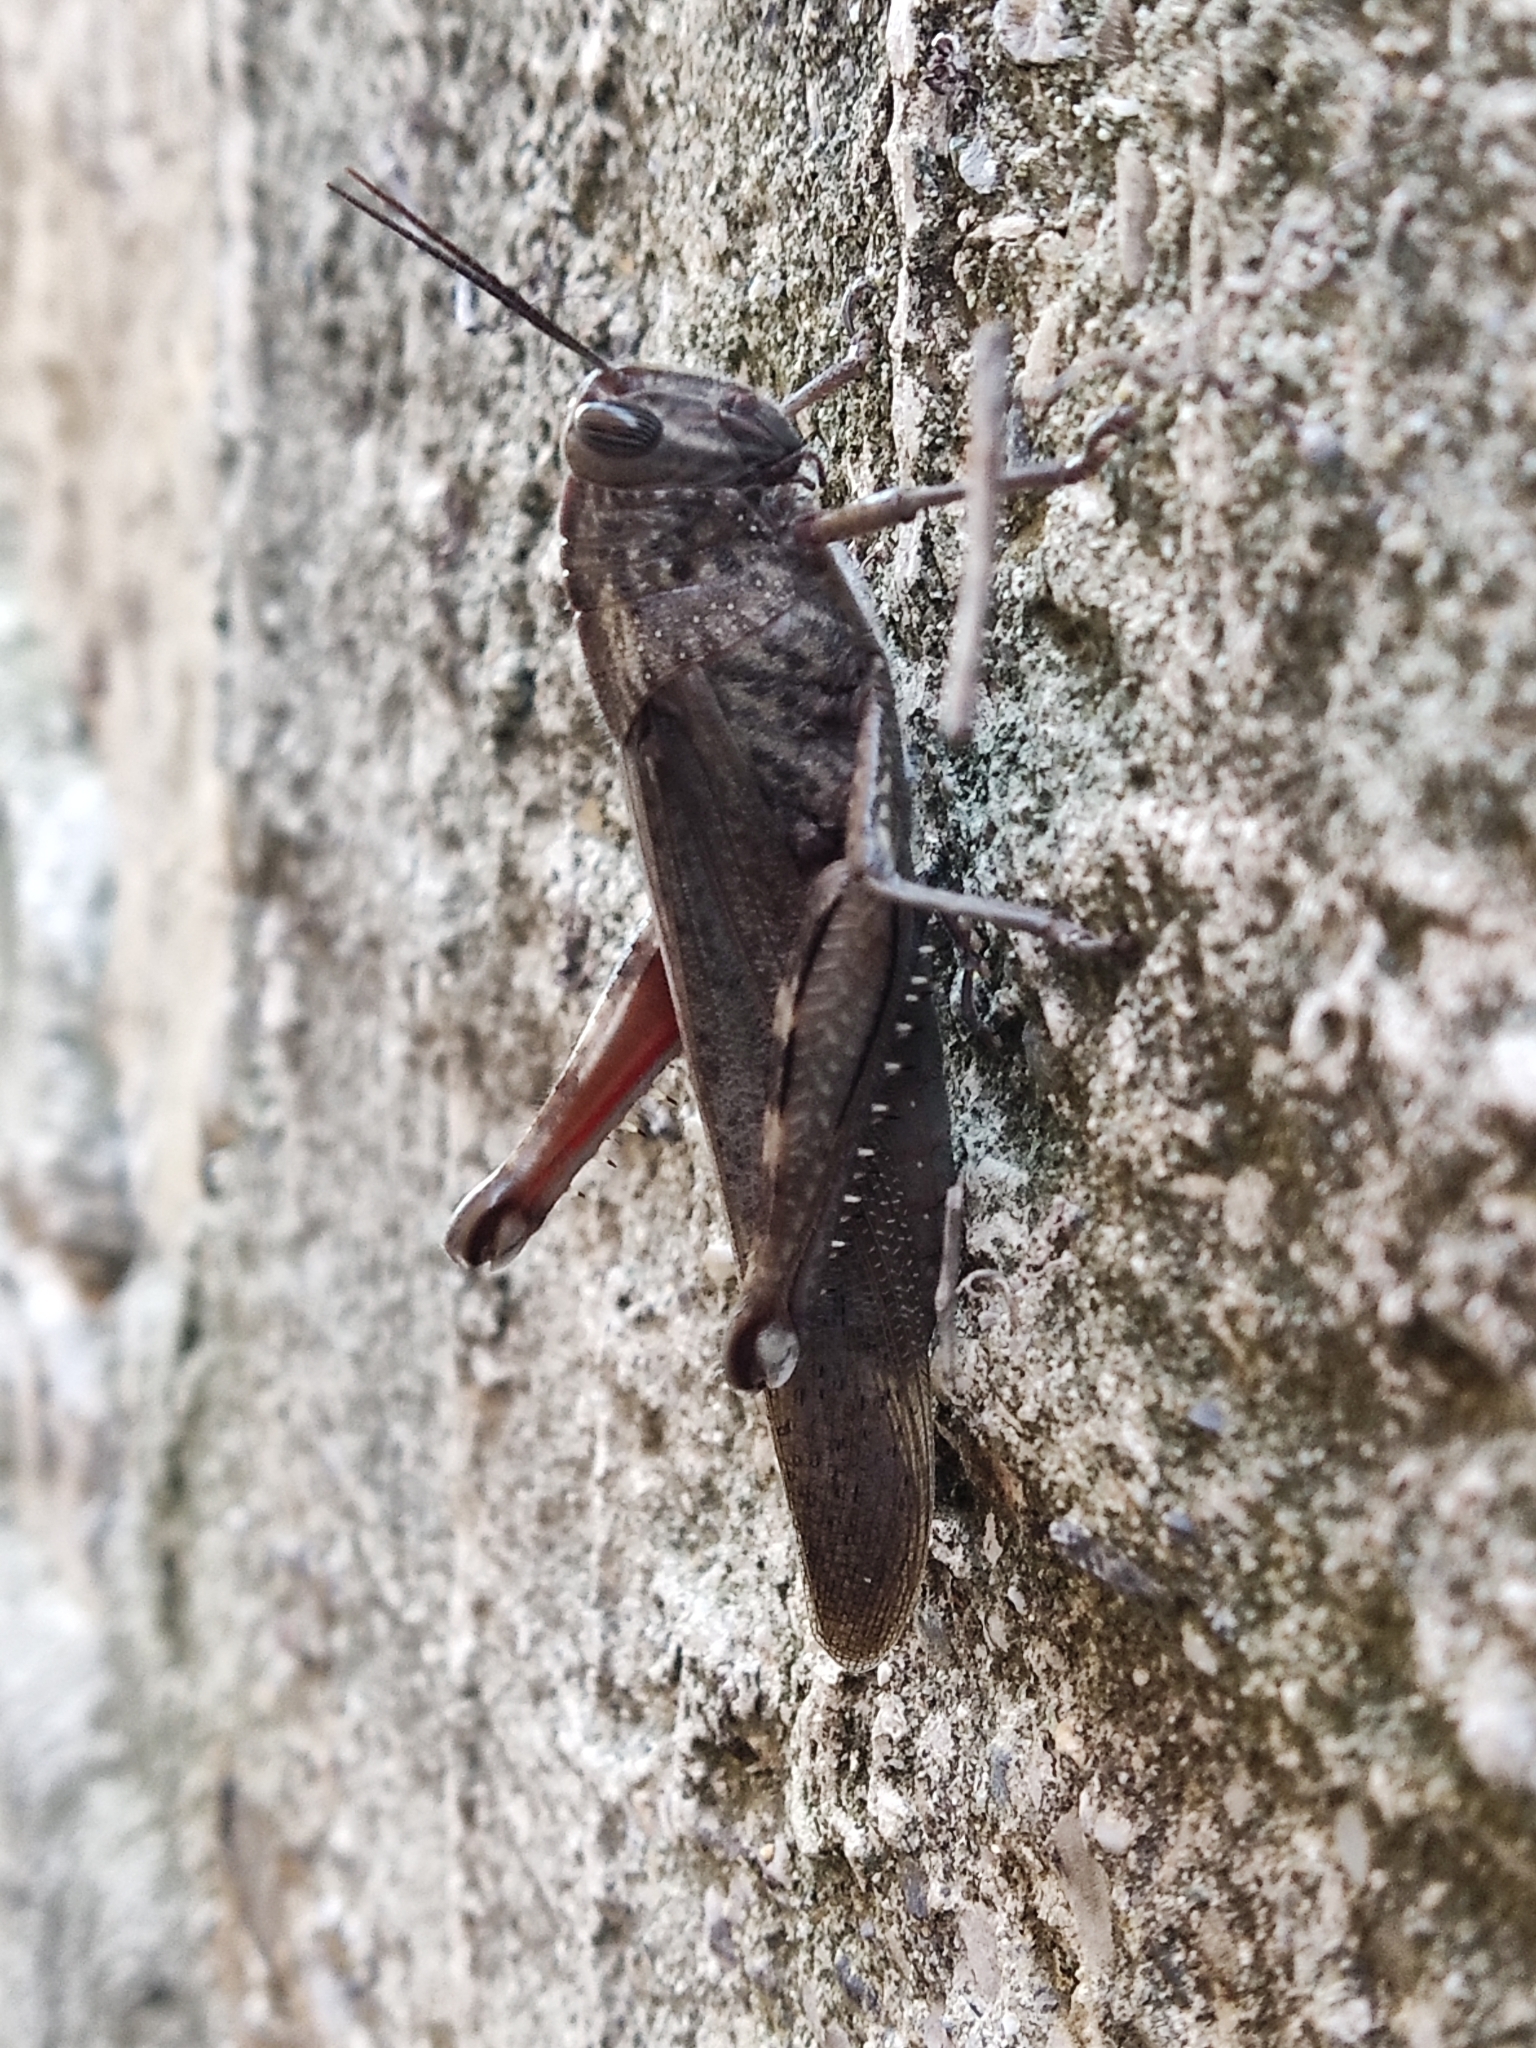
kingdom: Animalia
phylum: Arthropoda
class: Insecta
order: Orthoptera
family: Acrididae
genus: Anacridium
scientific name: Anacridium aegyptium
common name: Egyptian grasshopper
